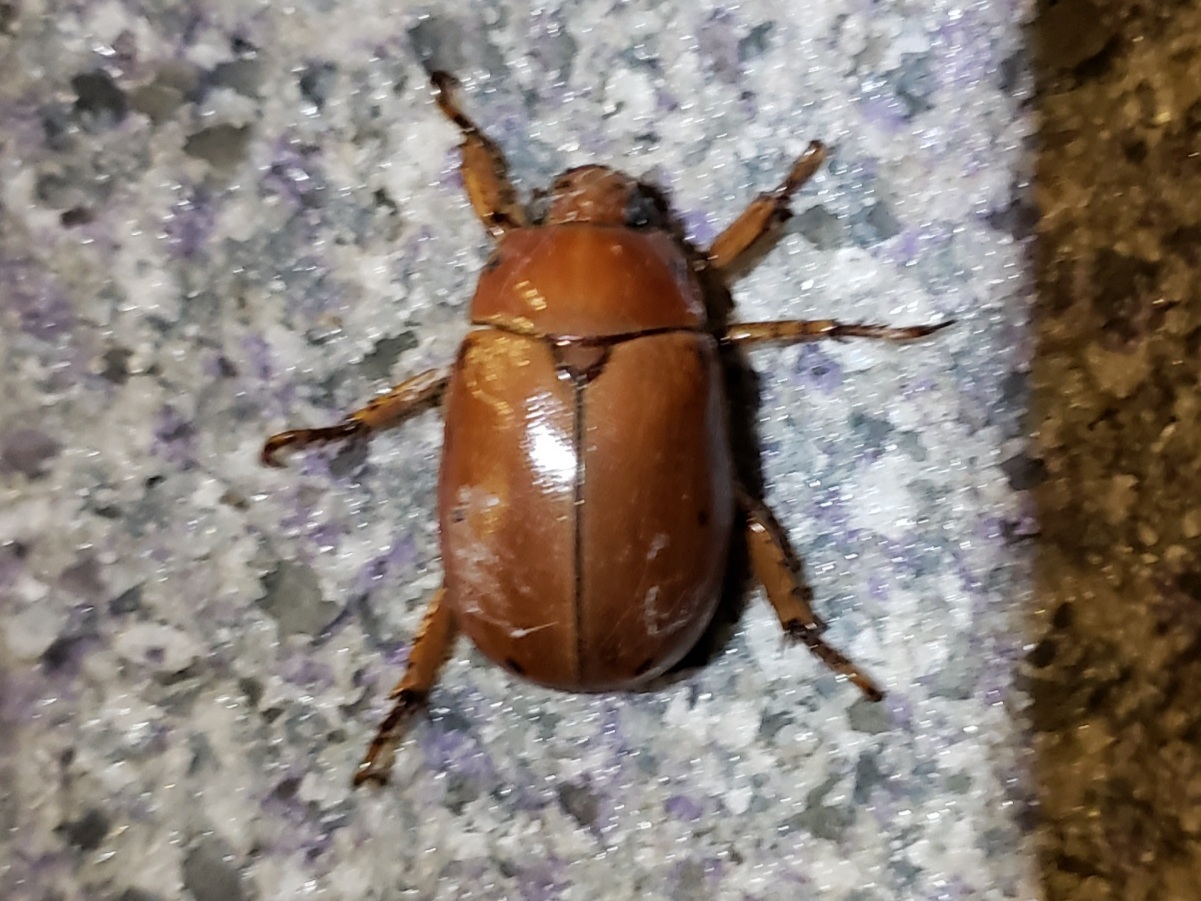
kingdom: Animalia
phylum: Arthropoda
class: Insecta
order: Coleoptera
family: Scarabaeidae
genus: Pelidnota
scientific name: Pelidnota punctata
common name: Grapevine beetle
